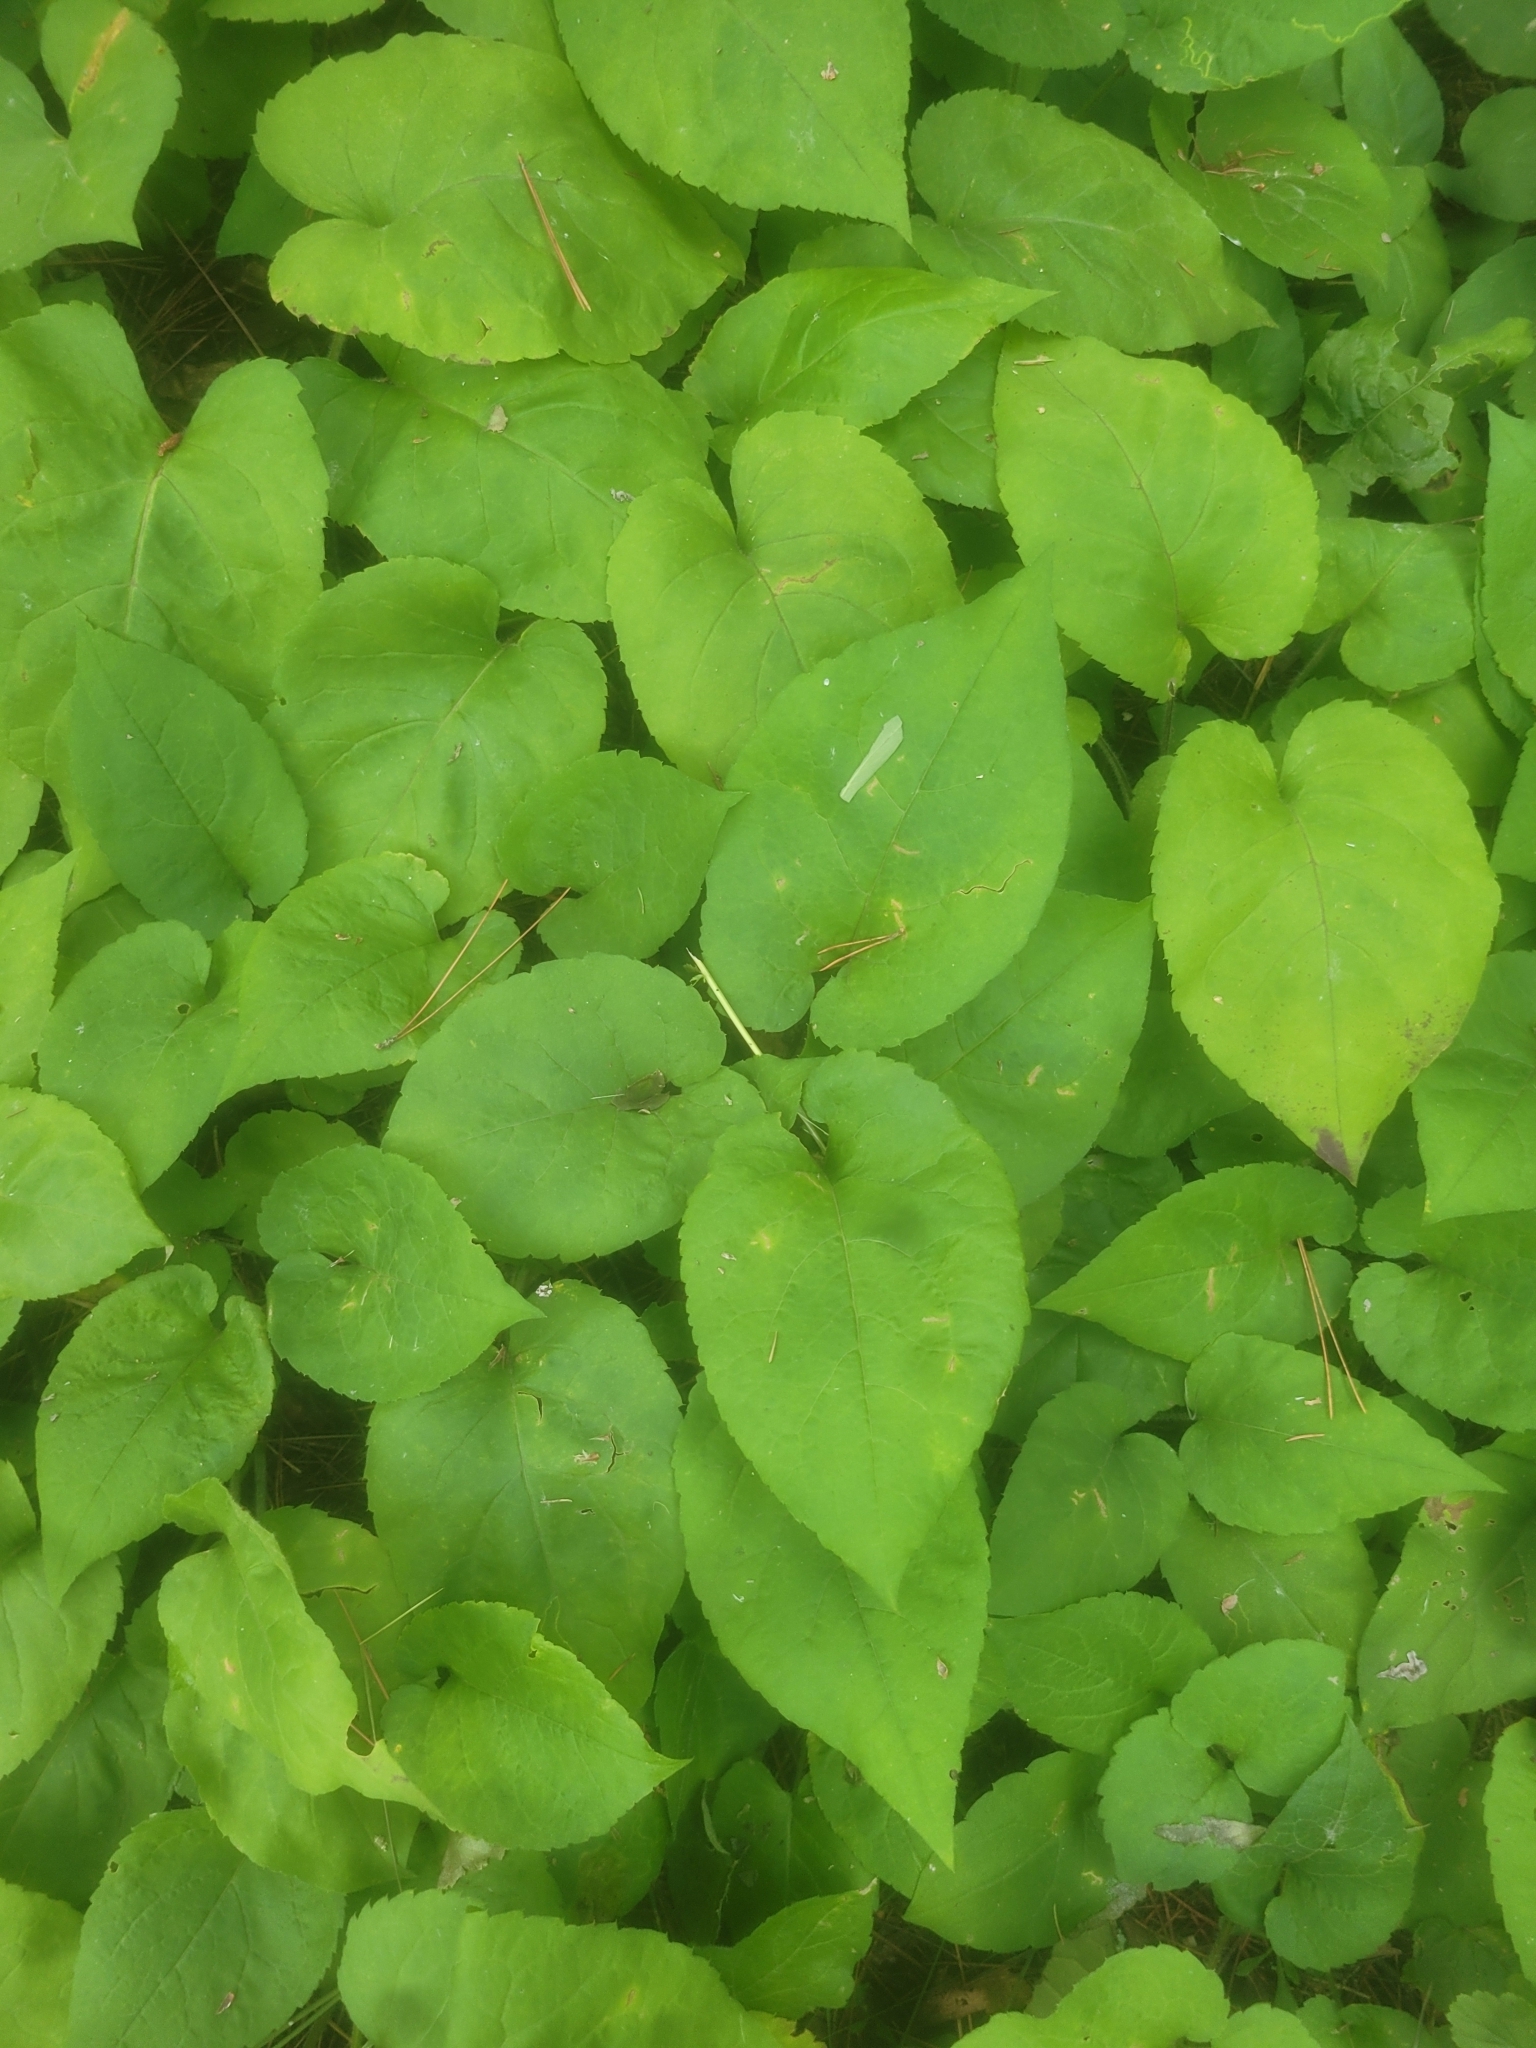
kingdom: Plantae
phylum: Tracheophyta
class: Magnoliopsida
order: Asterales
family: Asteraceae
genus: Eurybia
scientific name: Eurybia macrophylla
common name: Big-leaved aster
